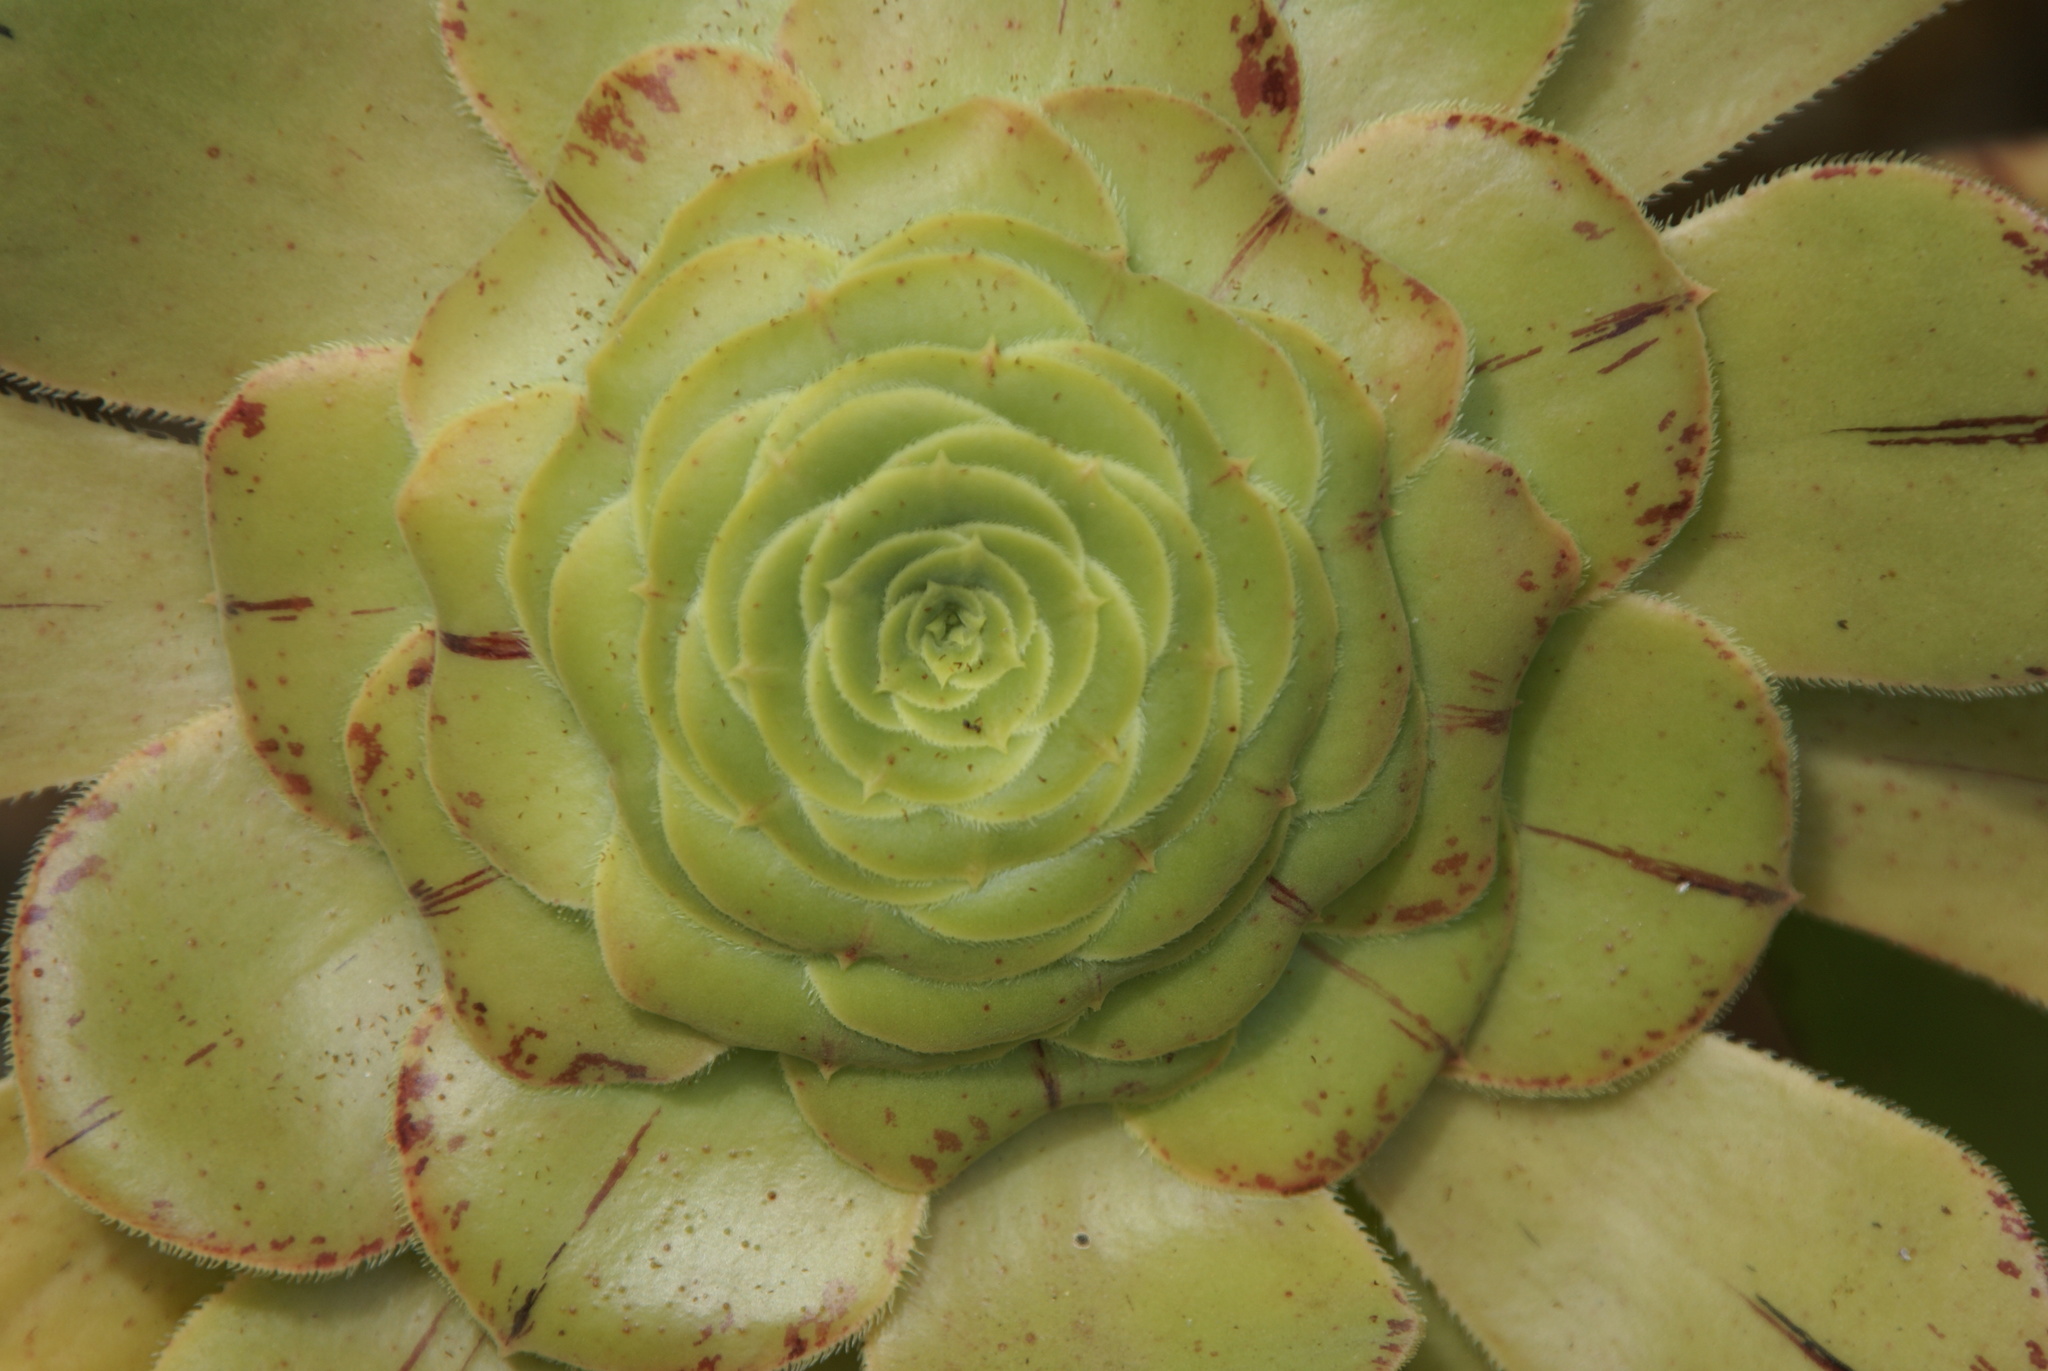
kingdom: Plantae
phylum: Tracheophyta
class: Magnoliopsida
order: Saxifragales
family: Crassulaceae
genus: Aeonium
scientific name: Aeonium arboreum
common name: Tree aeonium
